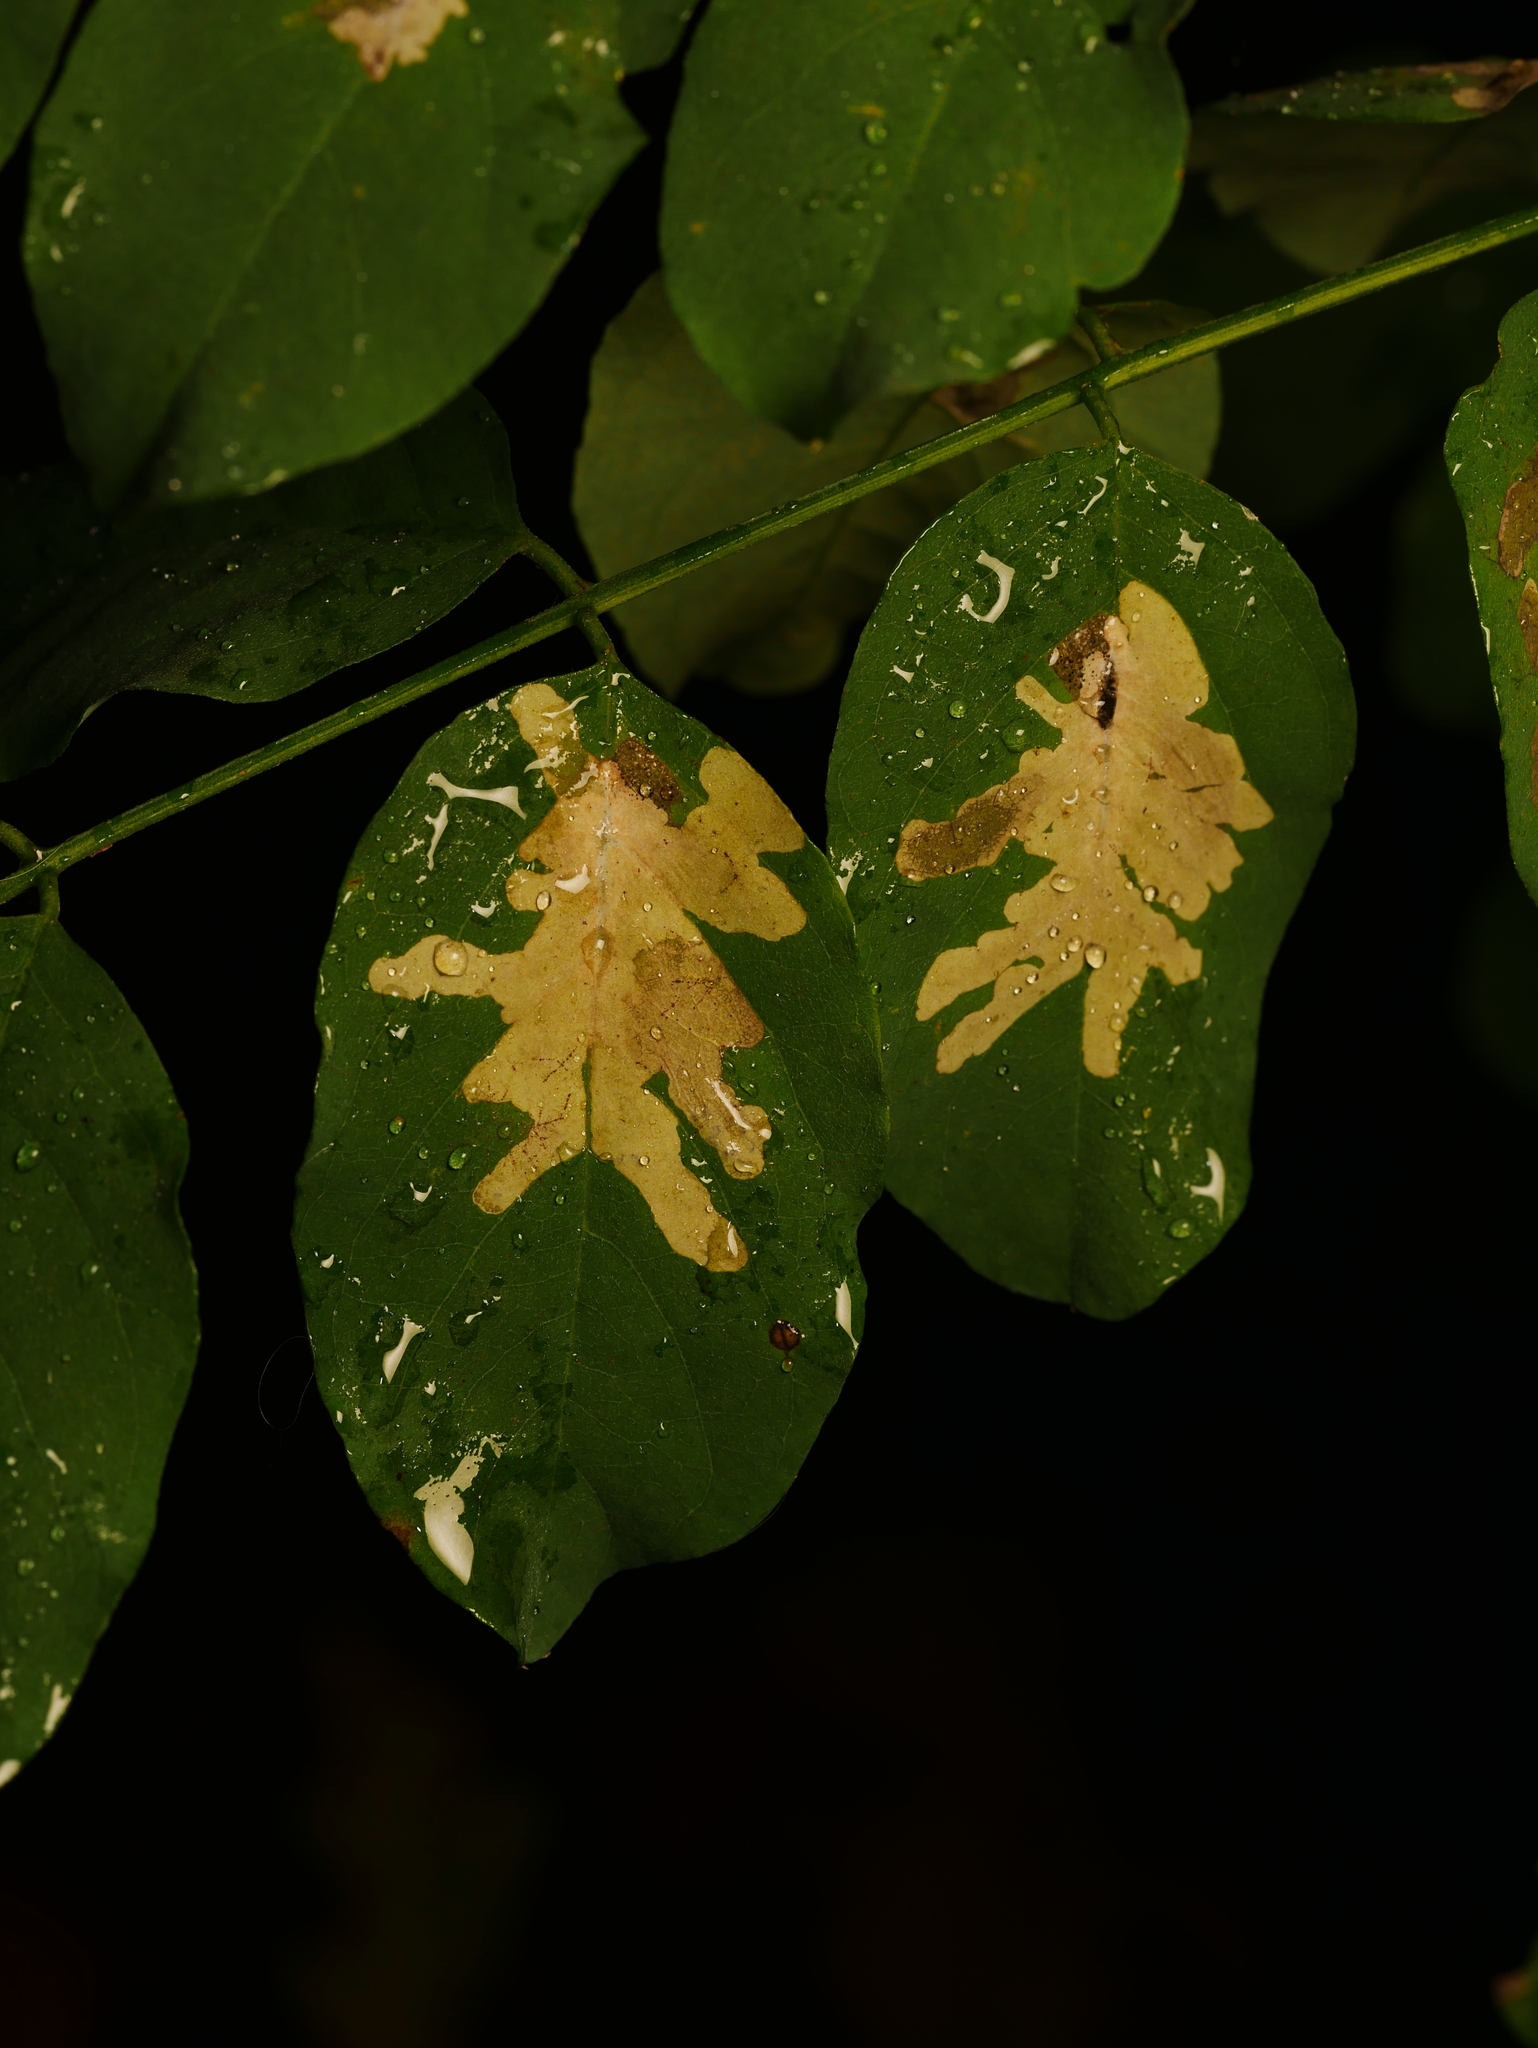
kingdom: Animalia
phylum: Arthropoda
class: Insecta
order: Lepidoptera
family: Gracillariidae
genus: Parectopa
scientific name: Parectopa robiniella
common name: Locust digitate leafminer
